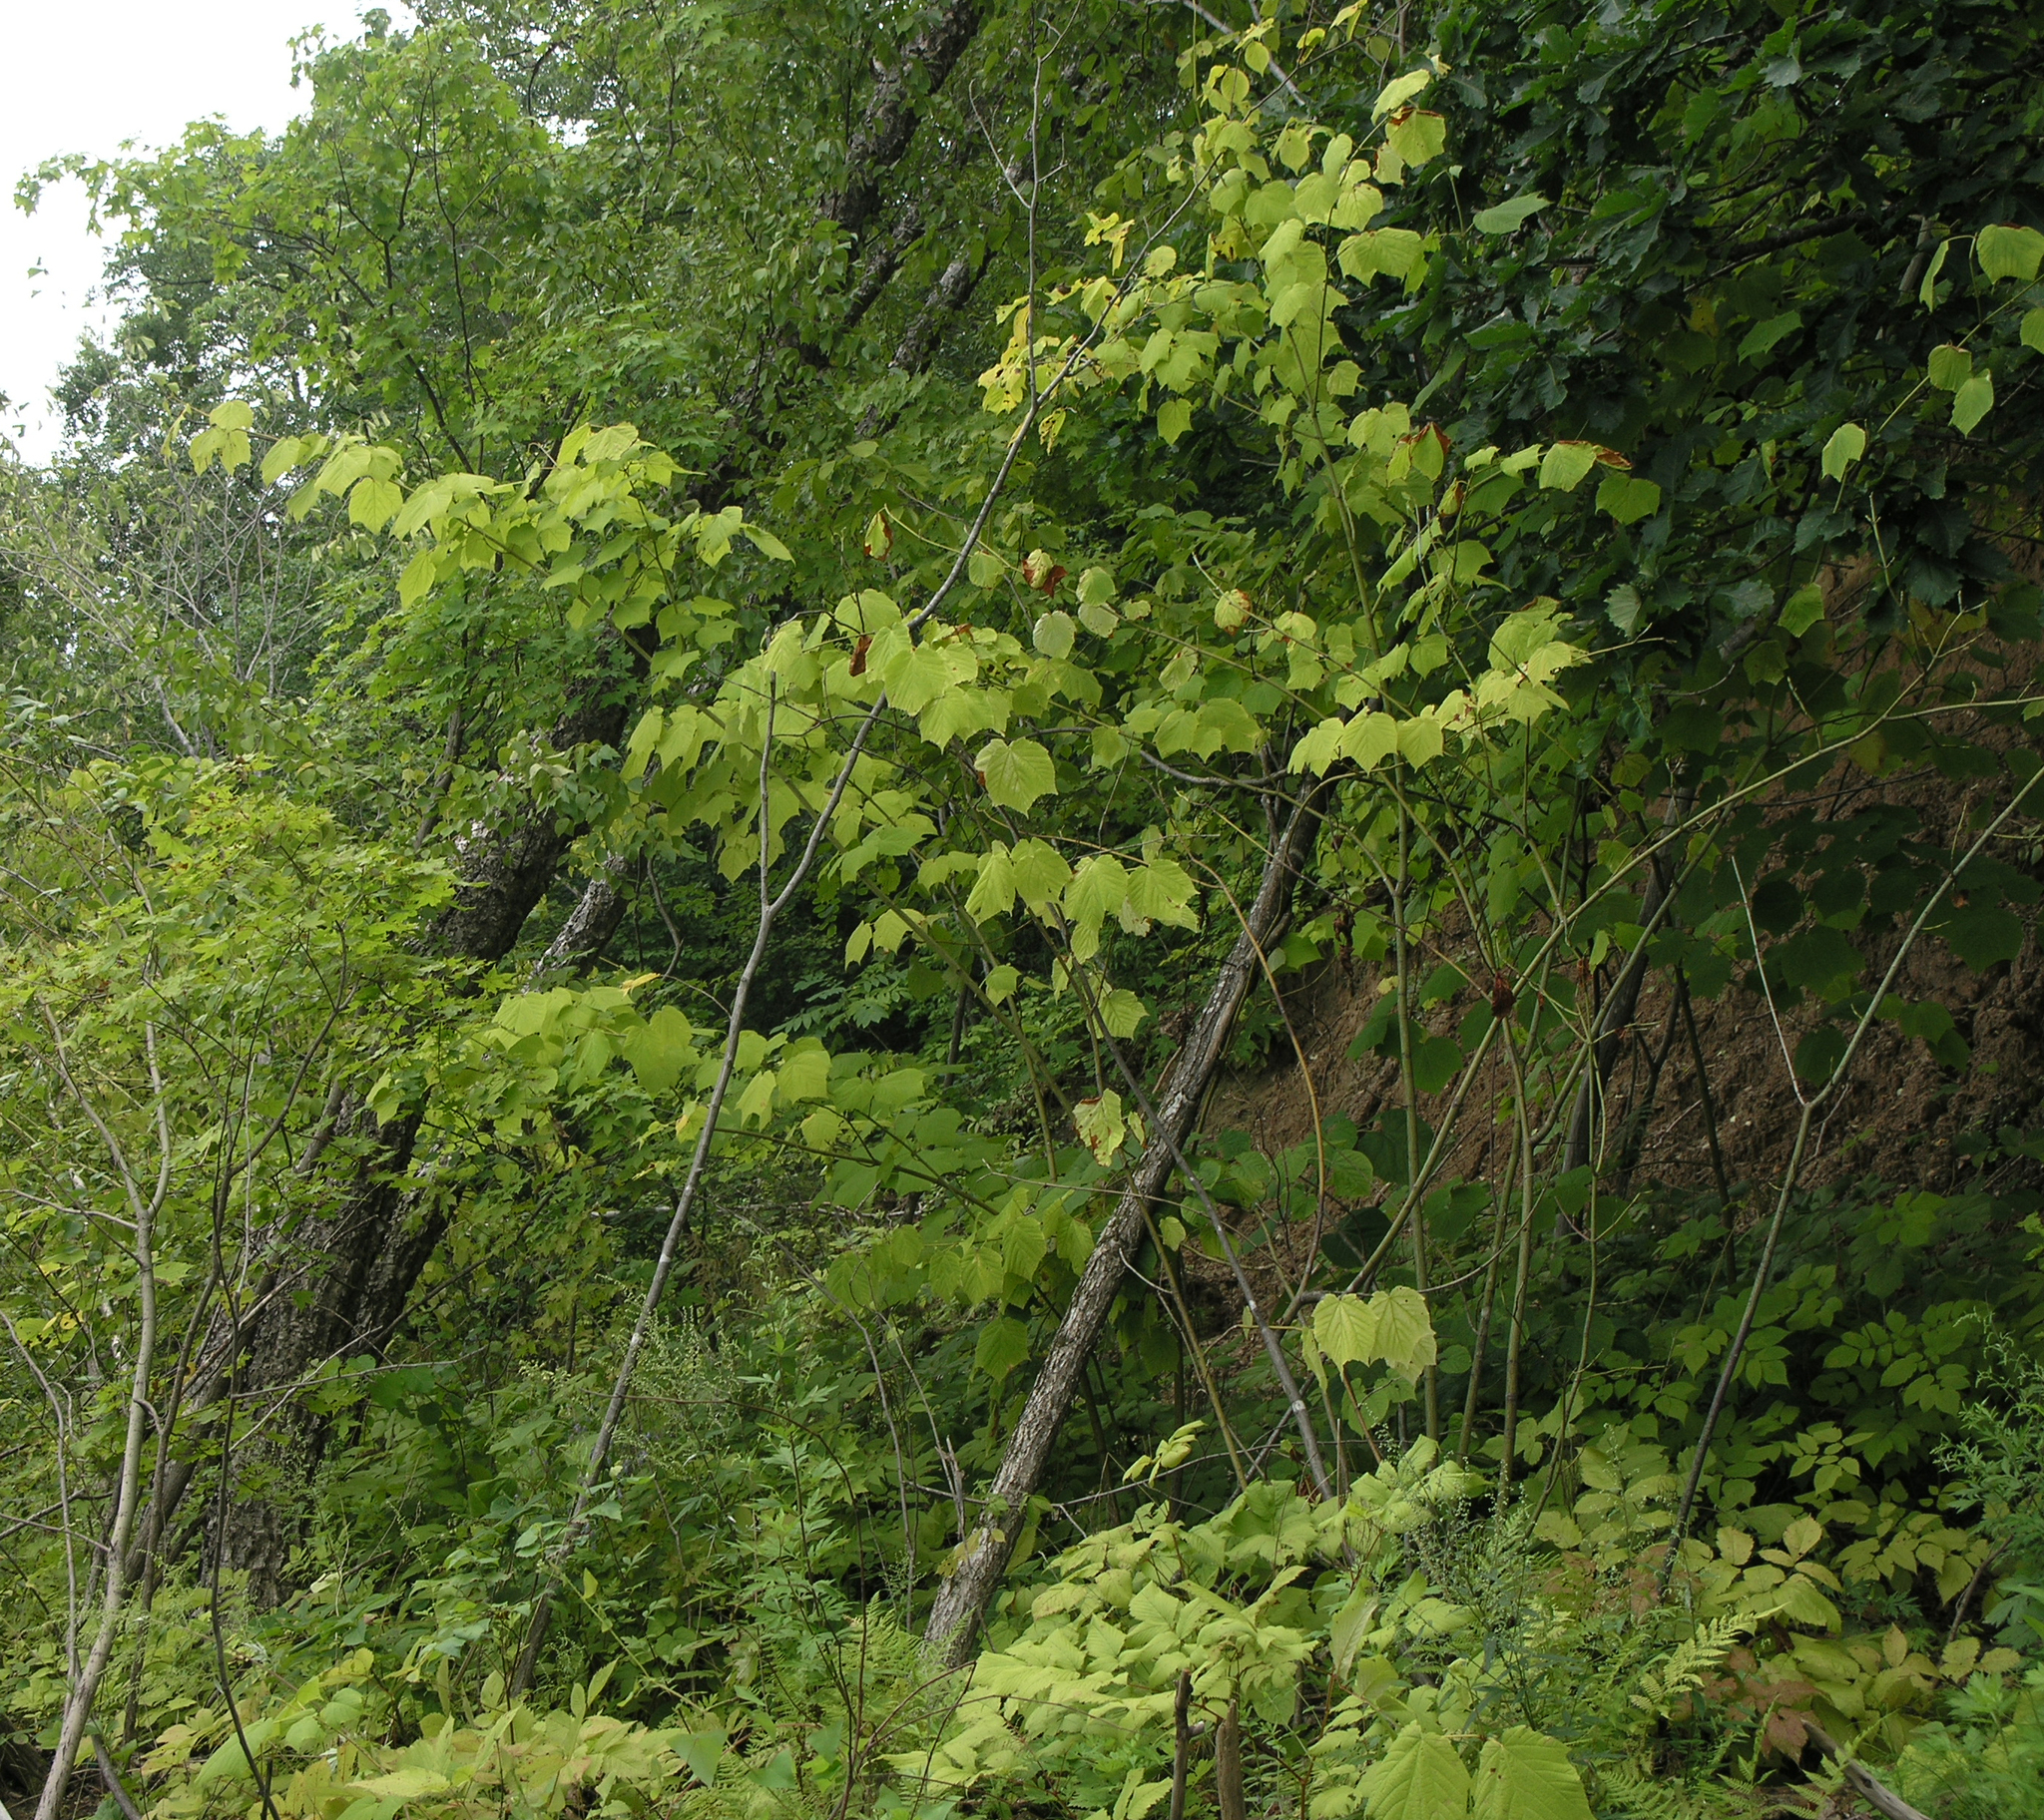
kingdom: Plantae
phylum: Tracheophyta
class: Magnoliopsida
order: Sapindales
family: Sapindaceae
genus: Acer
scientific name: Acer tegmentosum
